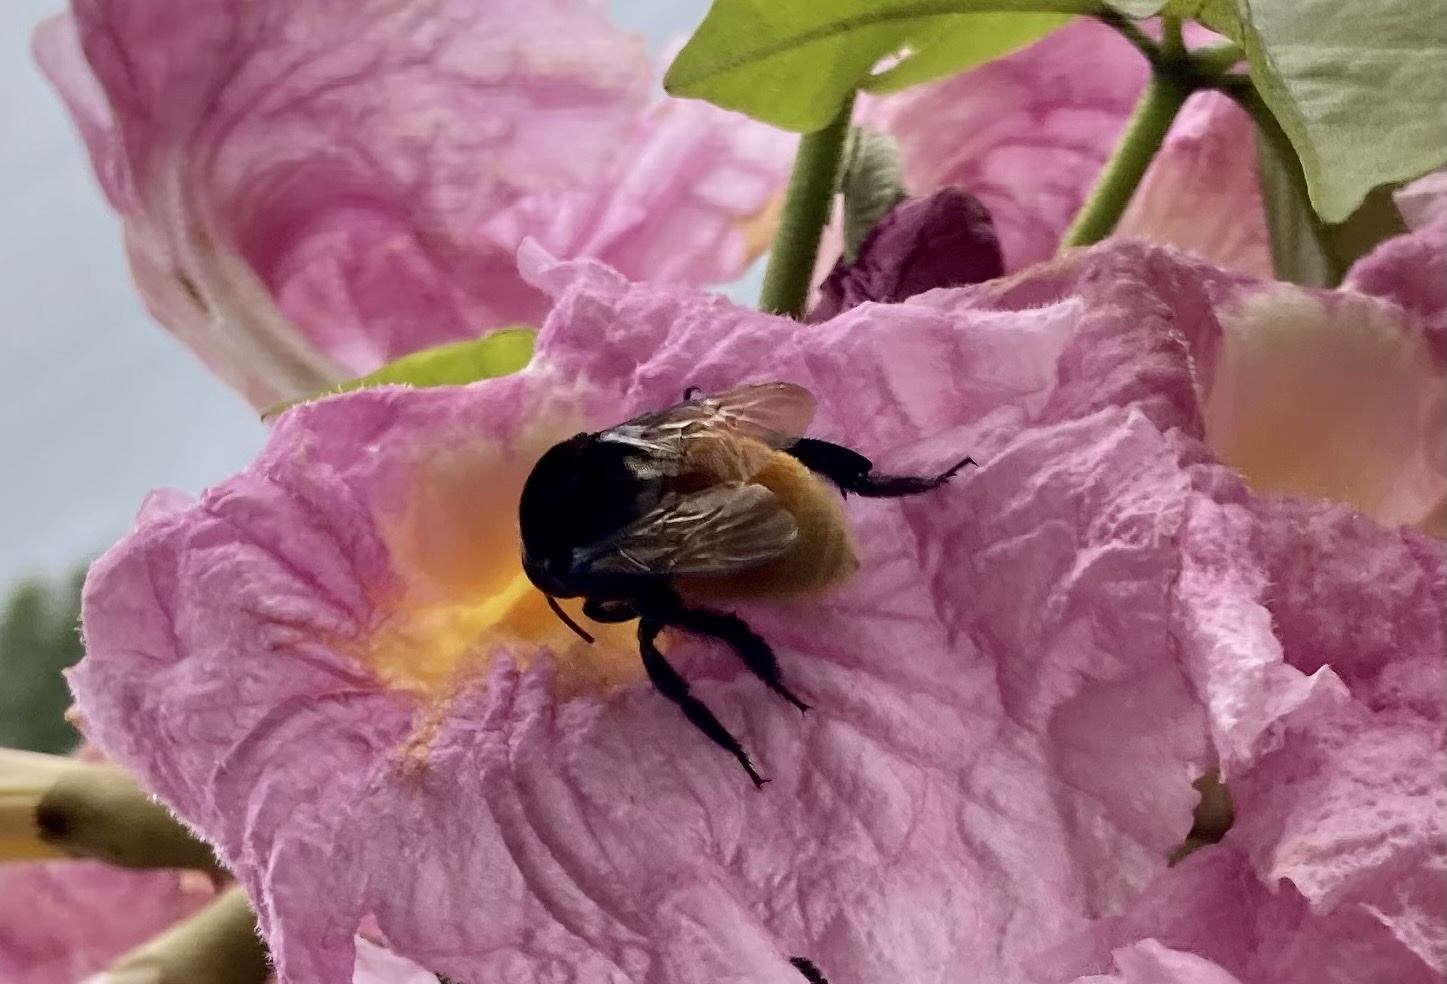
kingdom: Animalia
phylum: Arthropoda
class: Insecta
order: Hymenoptera
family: Apidae
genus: Eulaema
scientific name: Eulaema polychroma
